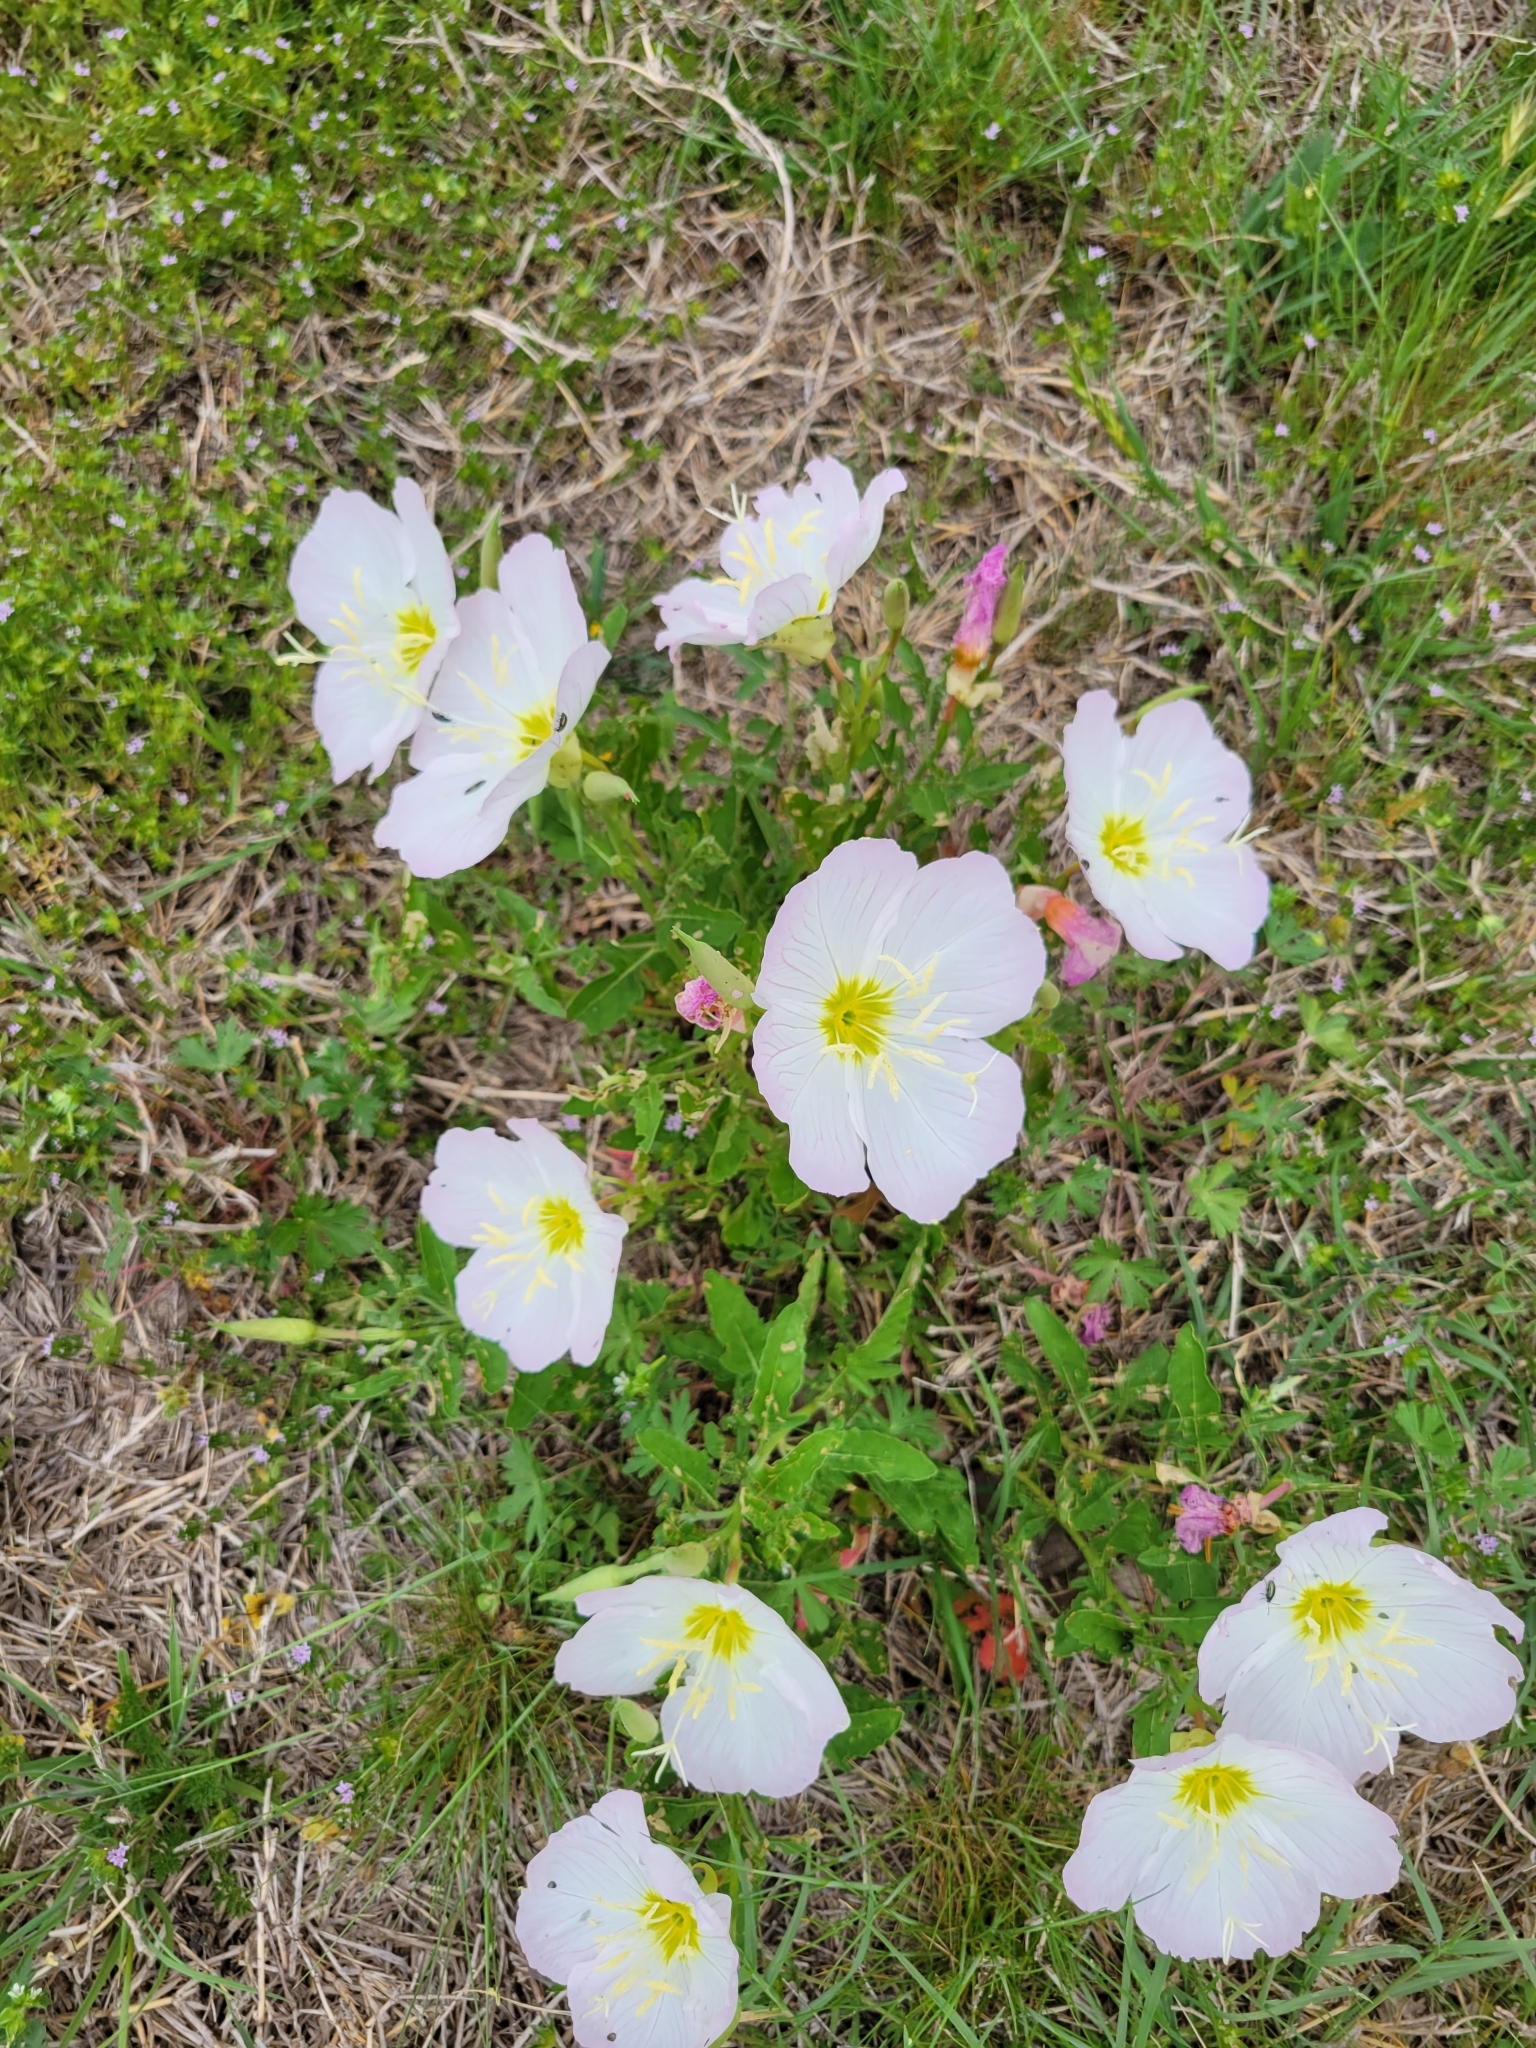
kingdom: Plantae
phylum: Tracheophyta
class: Magnoliopsida
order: Myrtales
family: Onagraceae
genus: Oenothera
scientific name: Oenothera speciosa
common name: White evening-primrose
